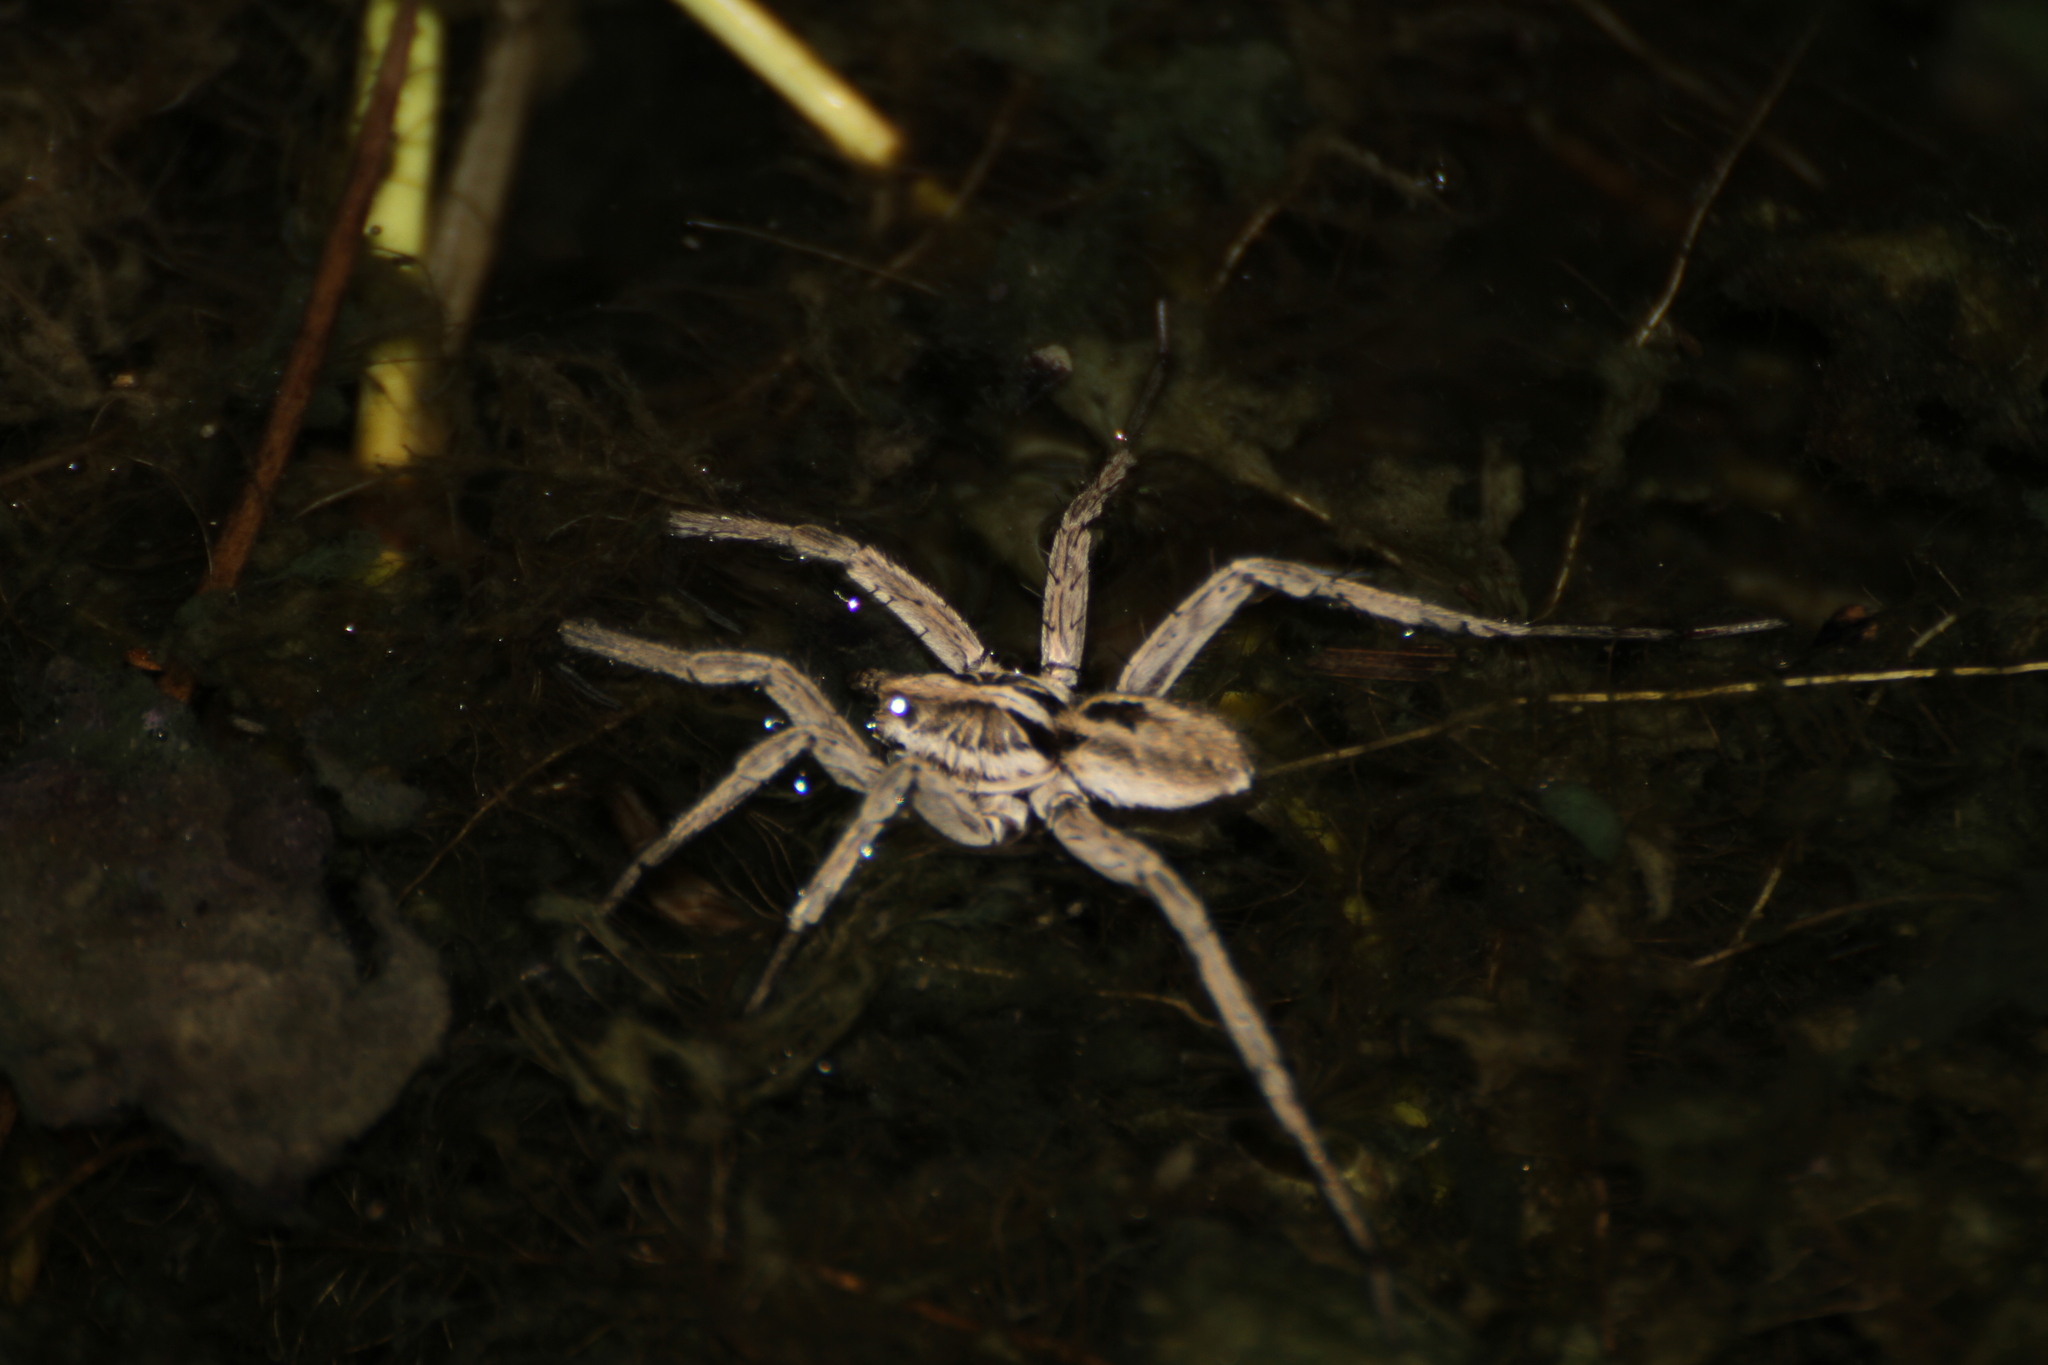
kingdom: Animalia
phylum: Arthropoda
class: Arachnida
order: Araneae
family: Lycosidae
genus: Hogna
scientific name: Hogna radiata
